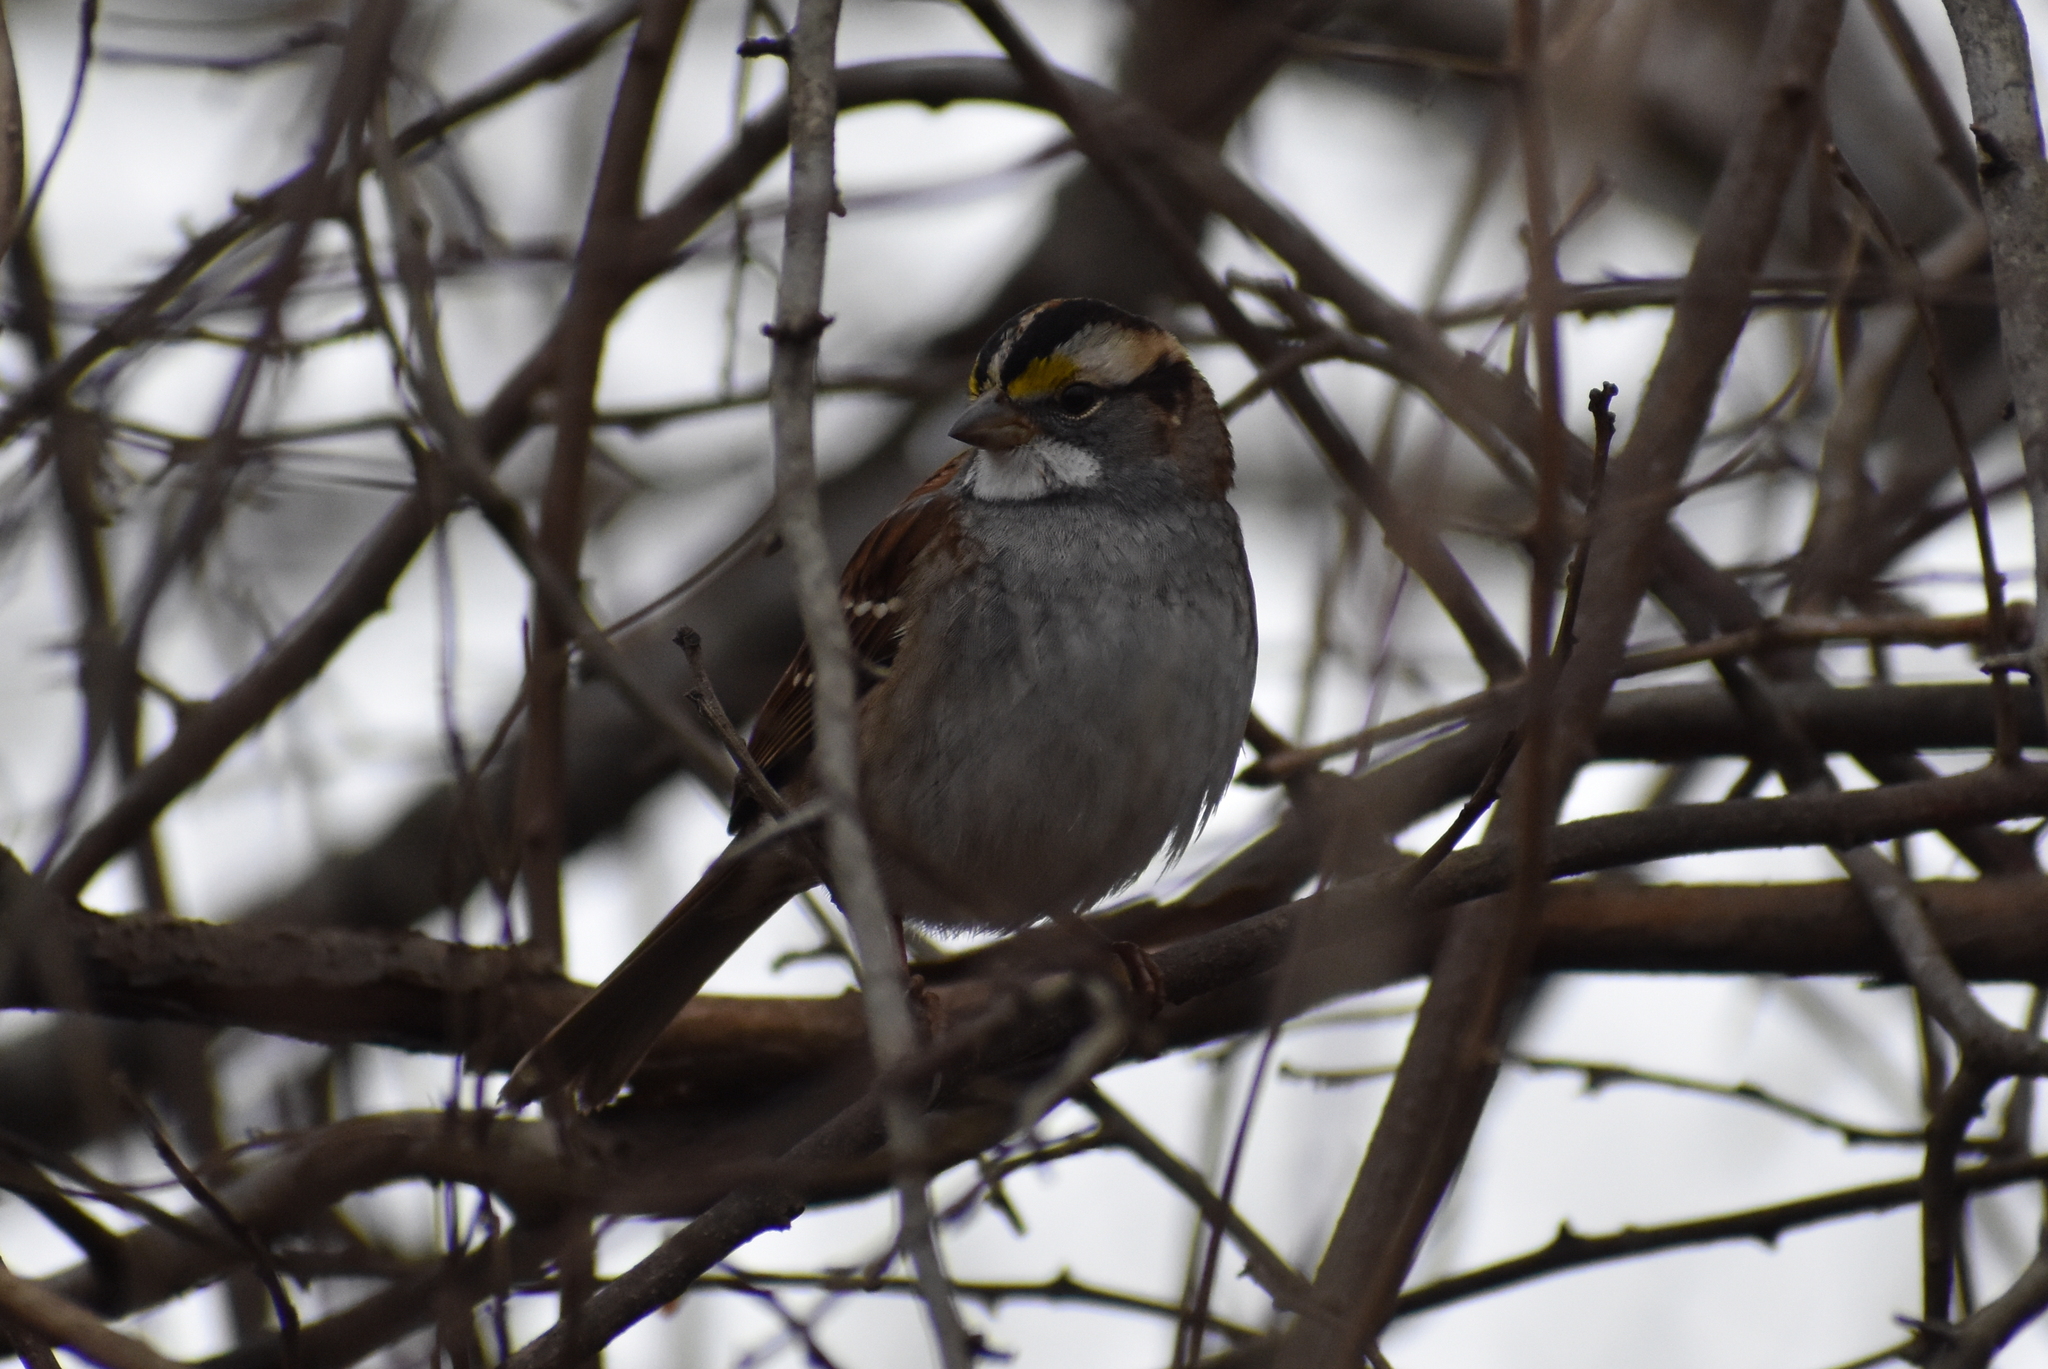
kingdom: Animalia
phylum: Chordata
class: Aves
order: Passeriformes
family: Passerellidae
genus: Zonotrichia
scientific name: Zonotrichia albicollis
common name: White-throated sparrow
